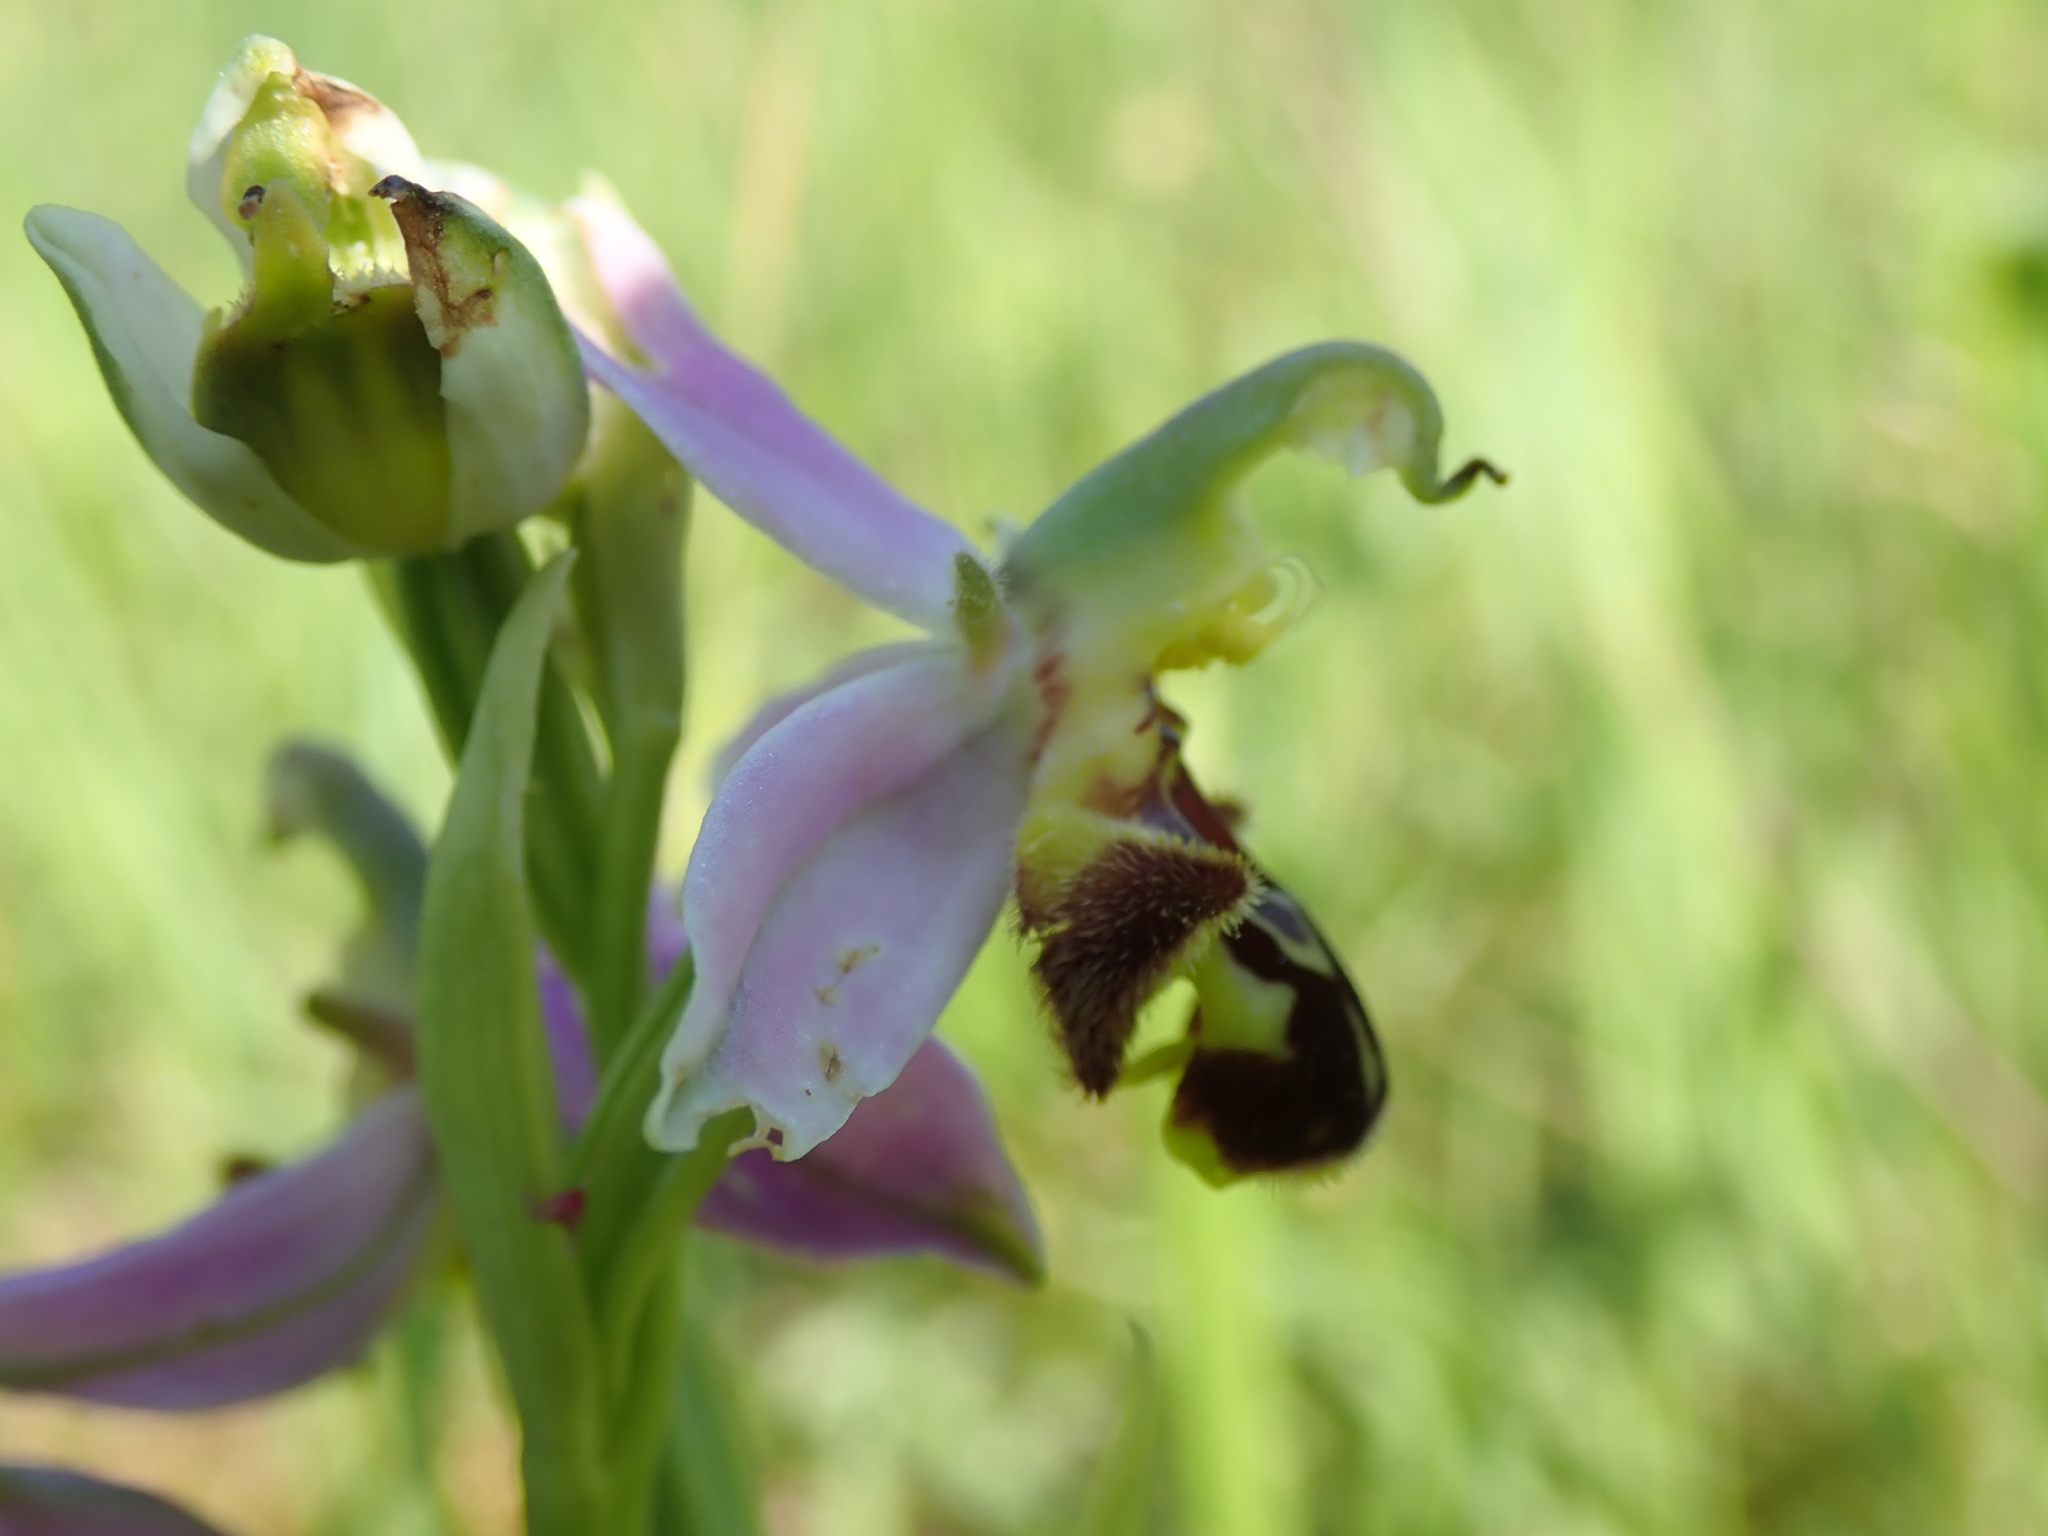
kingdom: Plantae
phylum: Tracheophyta
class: Liliopsida
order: Asparagales
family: Orchidaceae
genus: Ophrys
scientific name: Ophrys apifera
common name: Bee orchid
